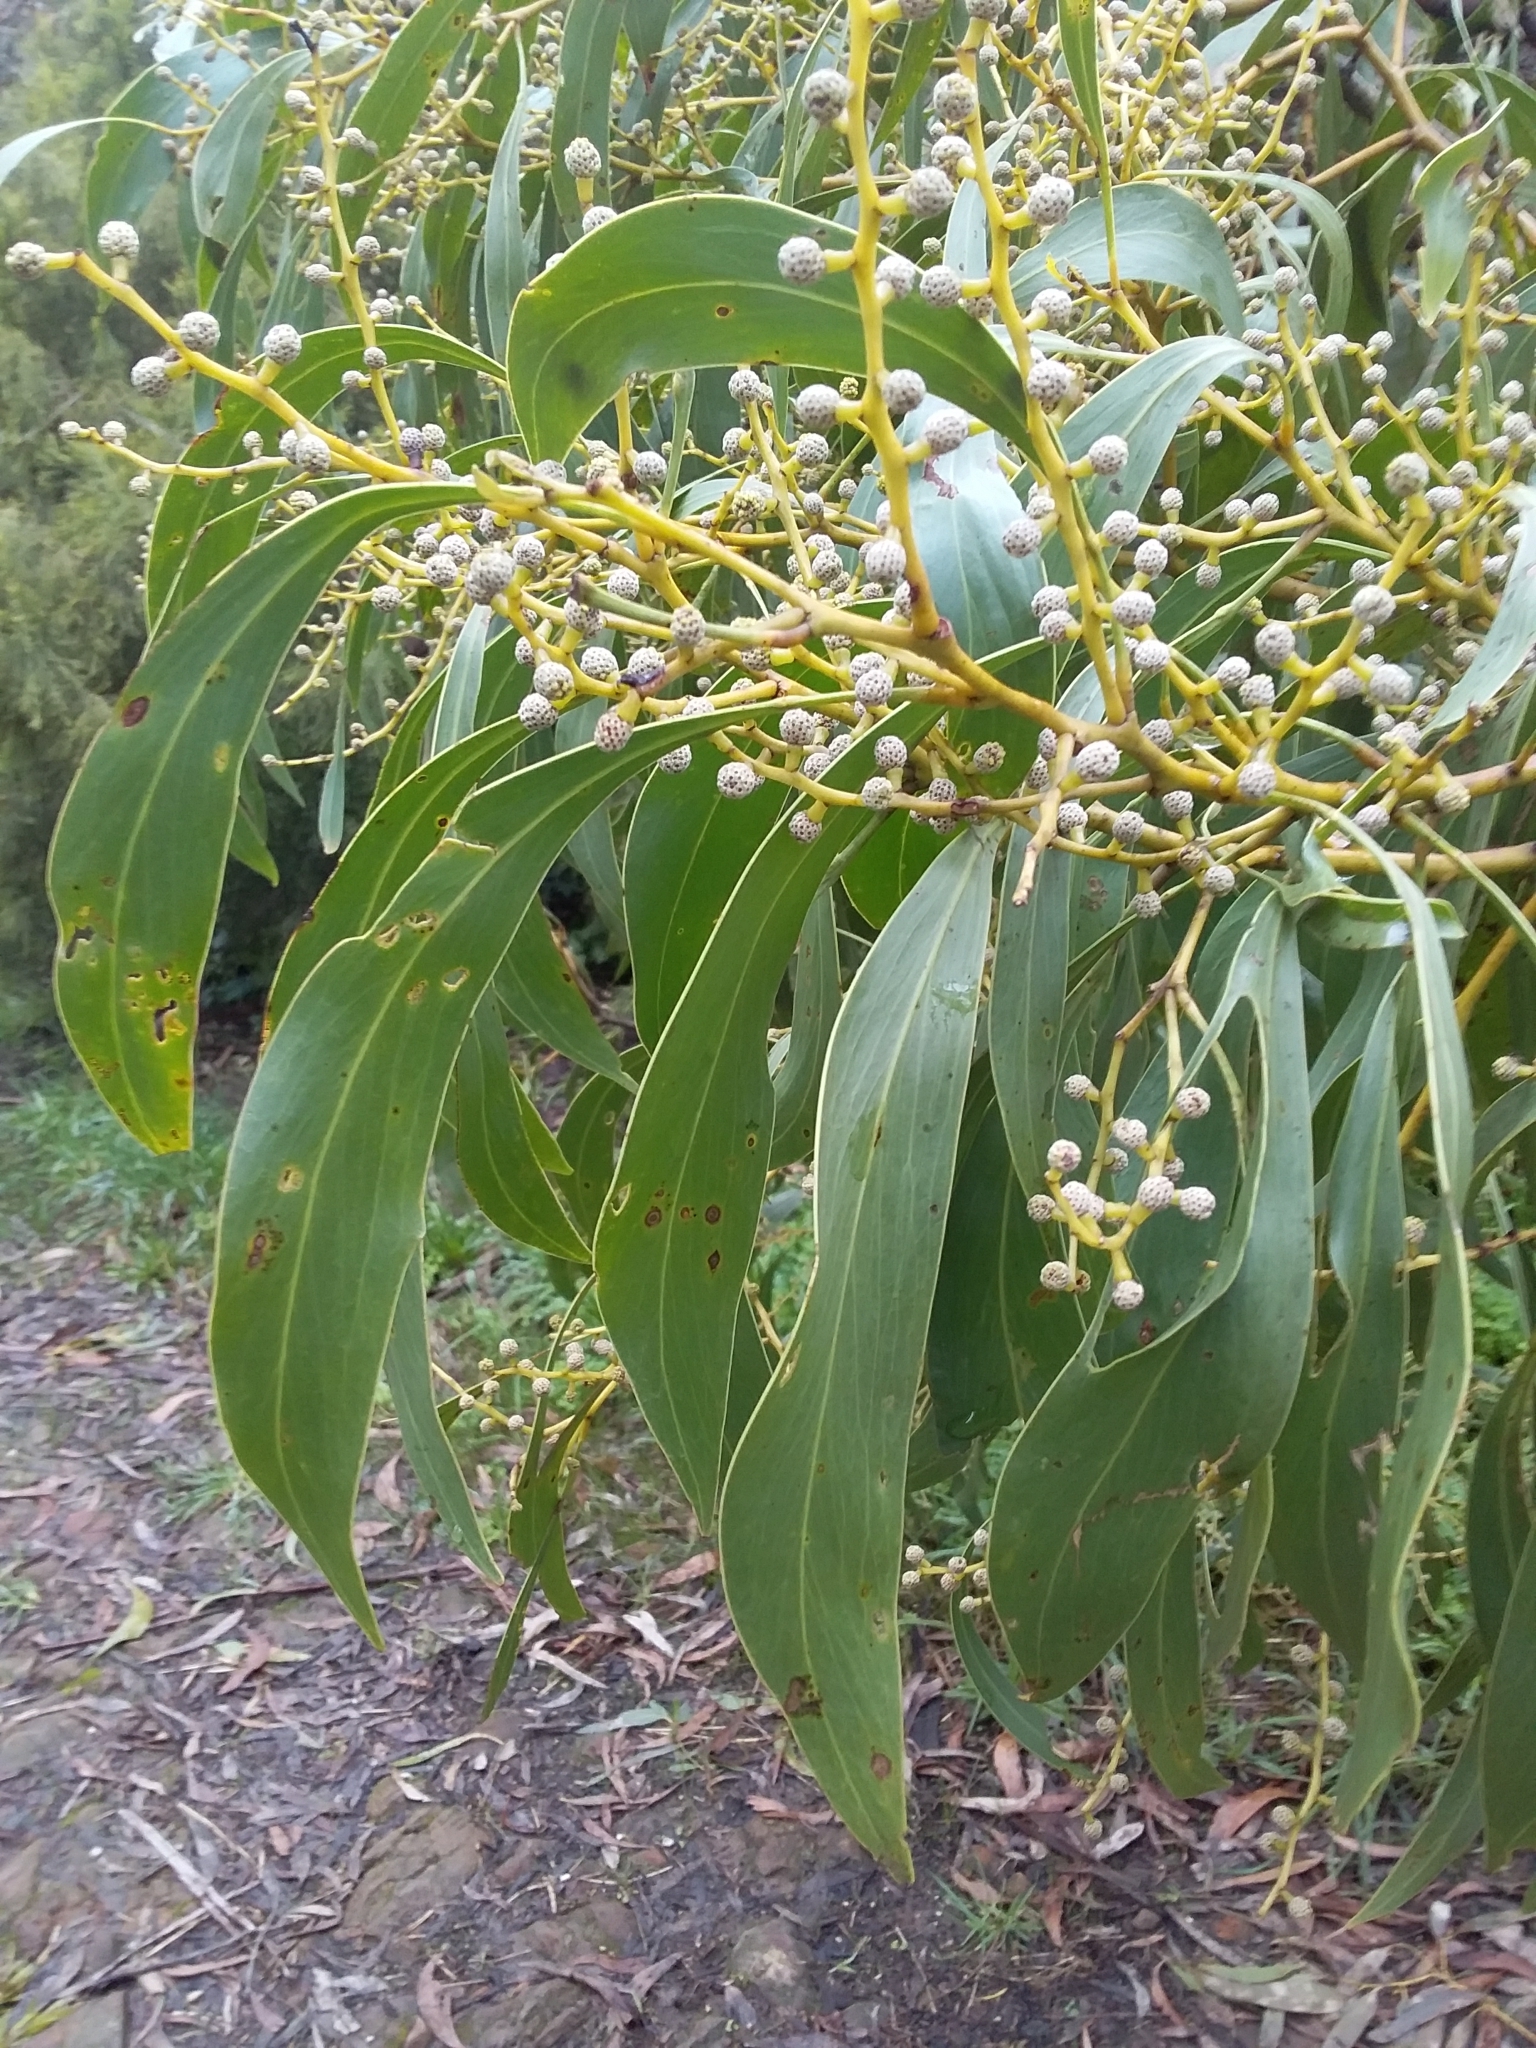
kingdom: Plantae
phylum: Tracheophyta
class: Magnoliopsida
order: Fabales
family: Fabaceae
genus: Acacia
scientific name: Acacia pycnantha
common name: Golden wattle
